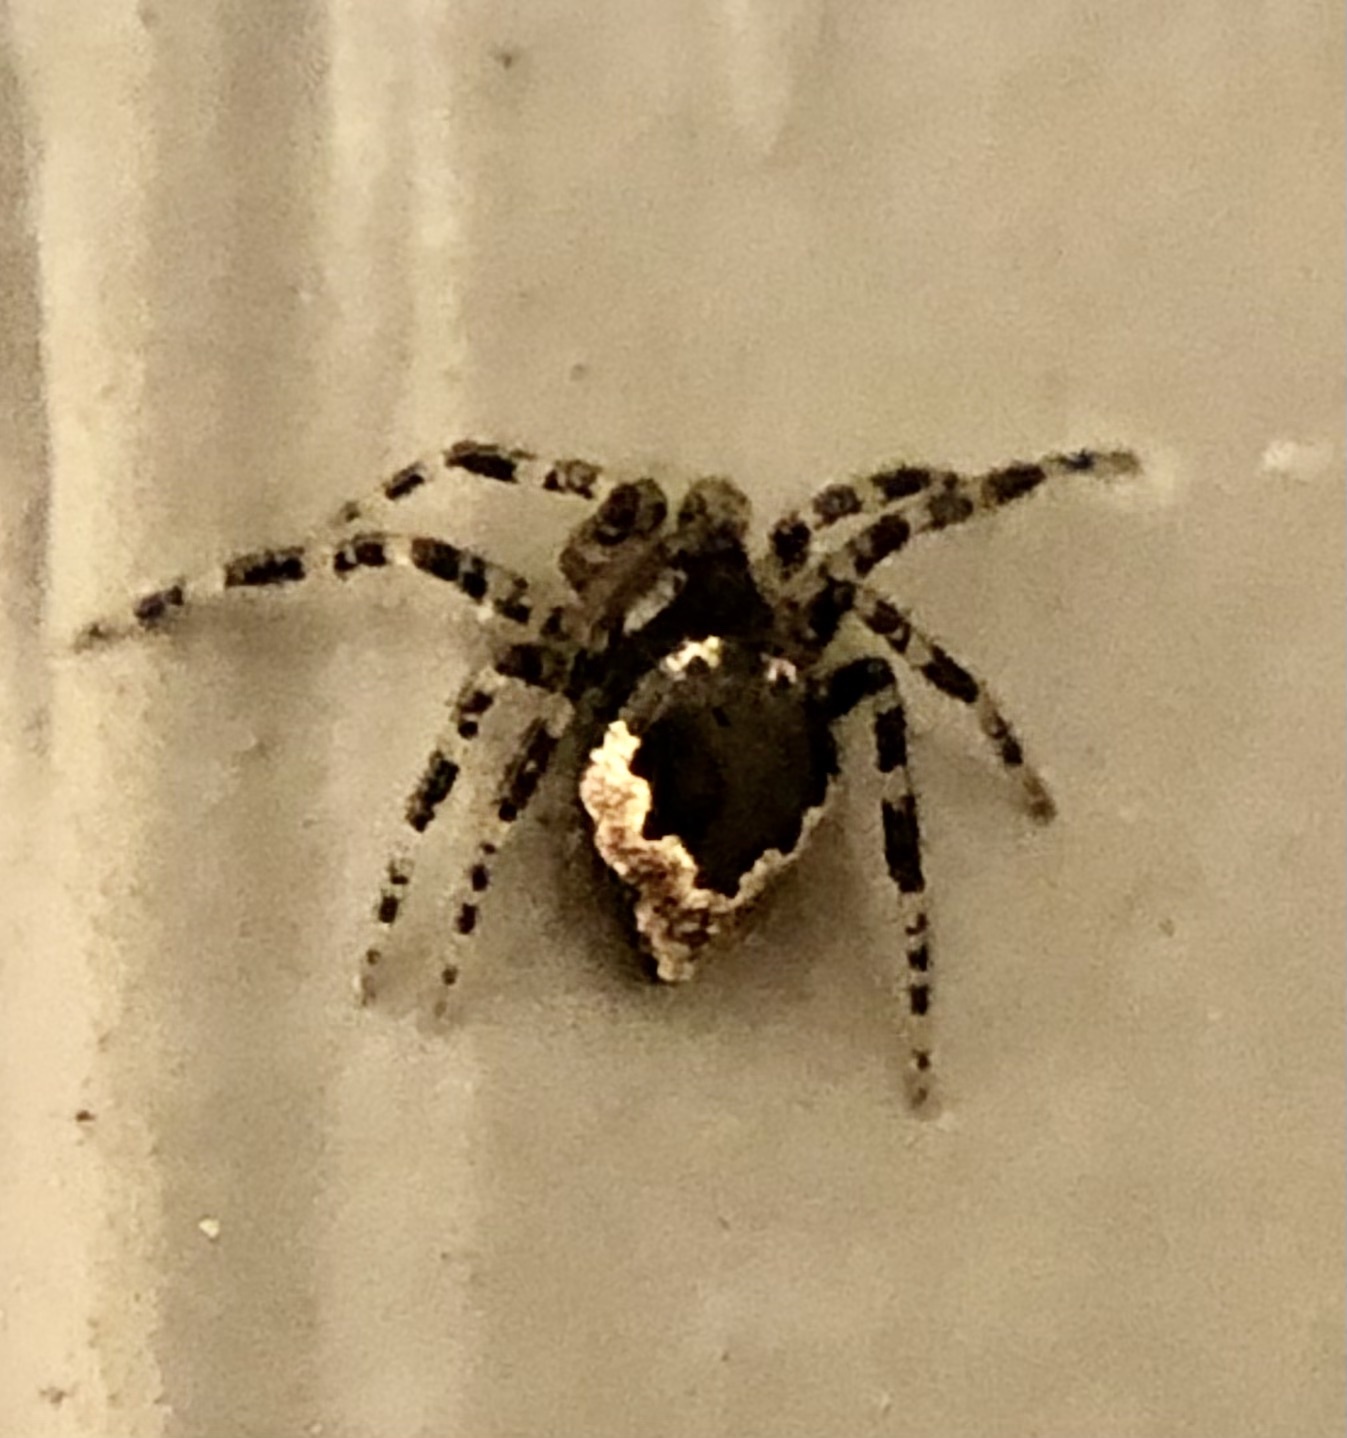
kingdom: Animalia
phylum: Arthropoda
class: Arachnida
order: Araneae
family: Theridiidae
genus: Euryopis
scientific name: Euryopis funebris
